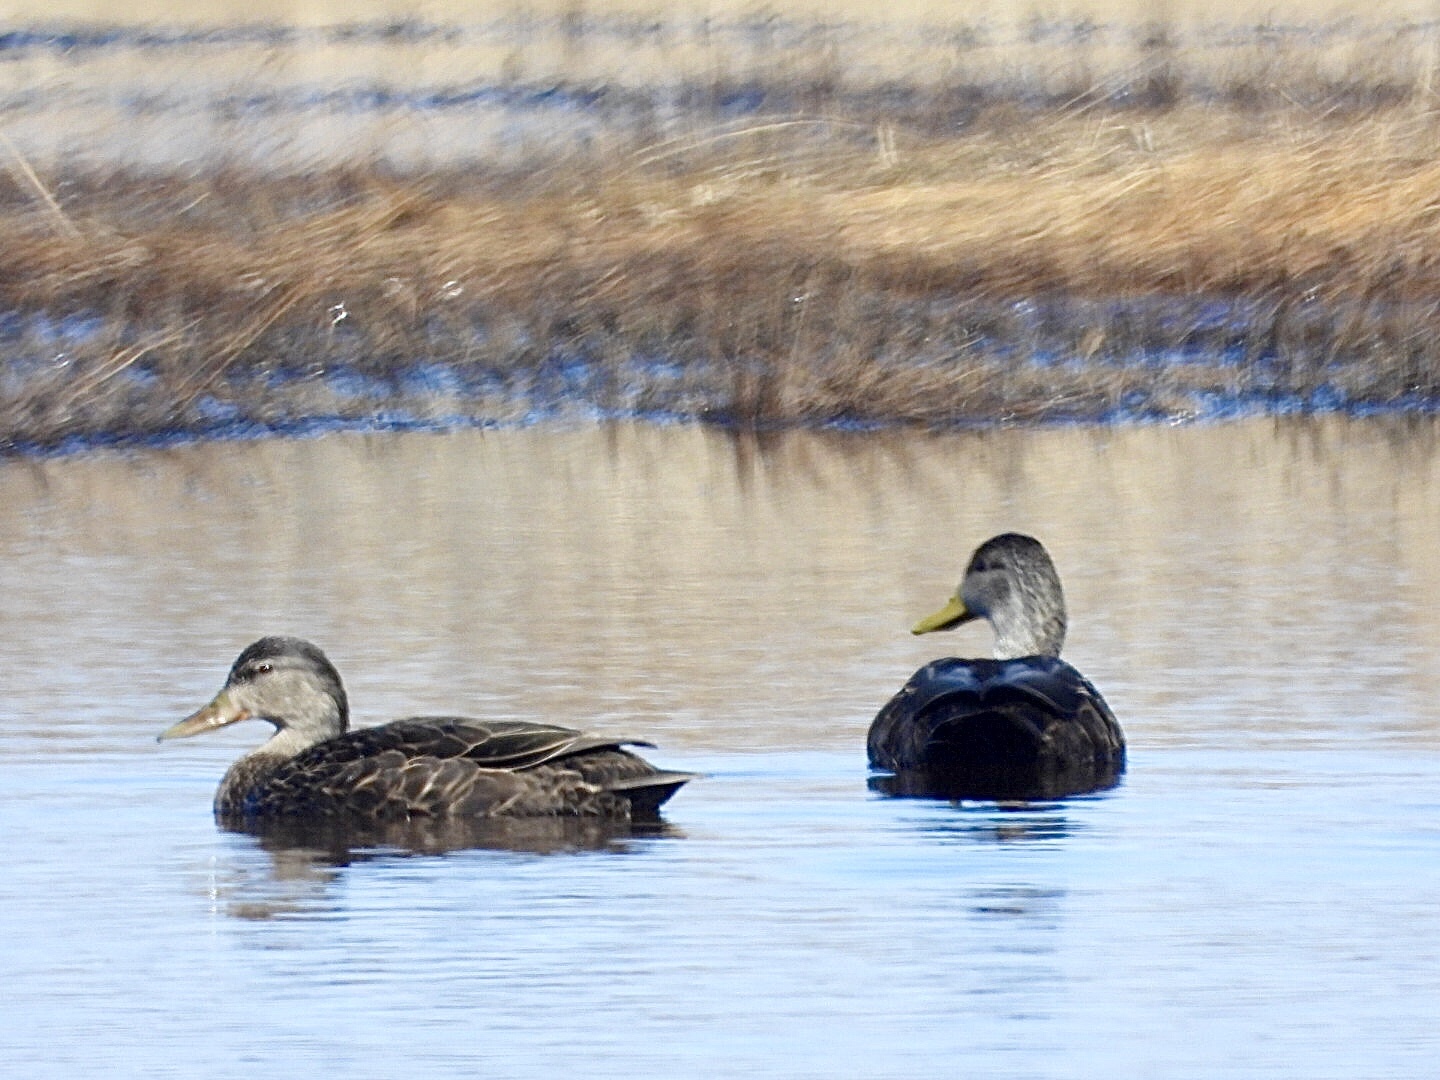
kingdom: Animalia
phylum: Chordata
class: Aves
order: Anseriformes
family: Anatidae
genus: Anas
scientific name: Anas rubripes
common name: American black duck
